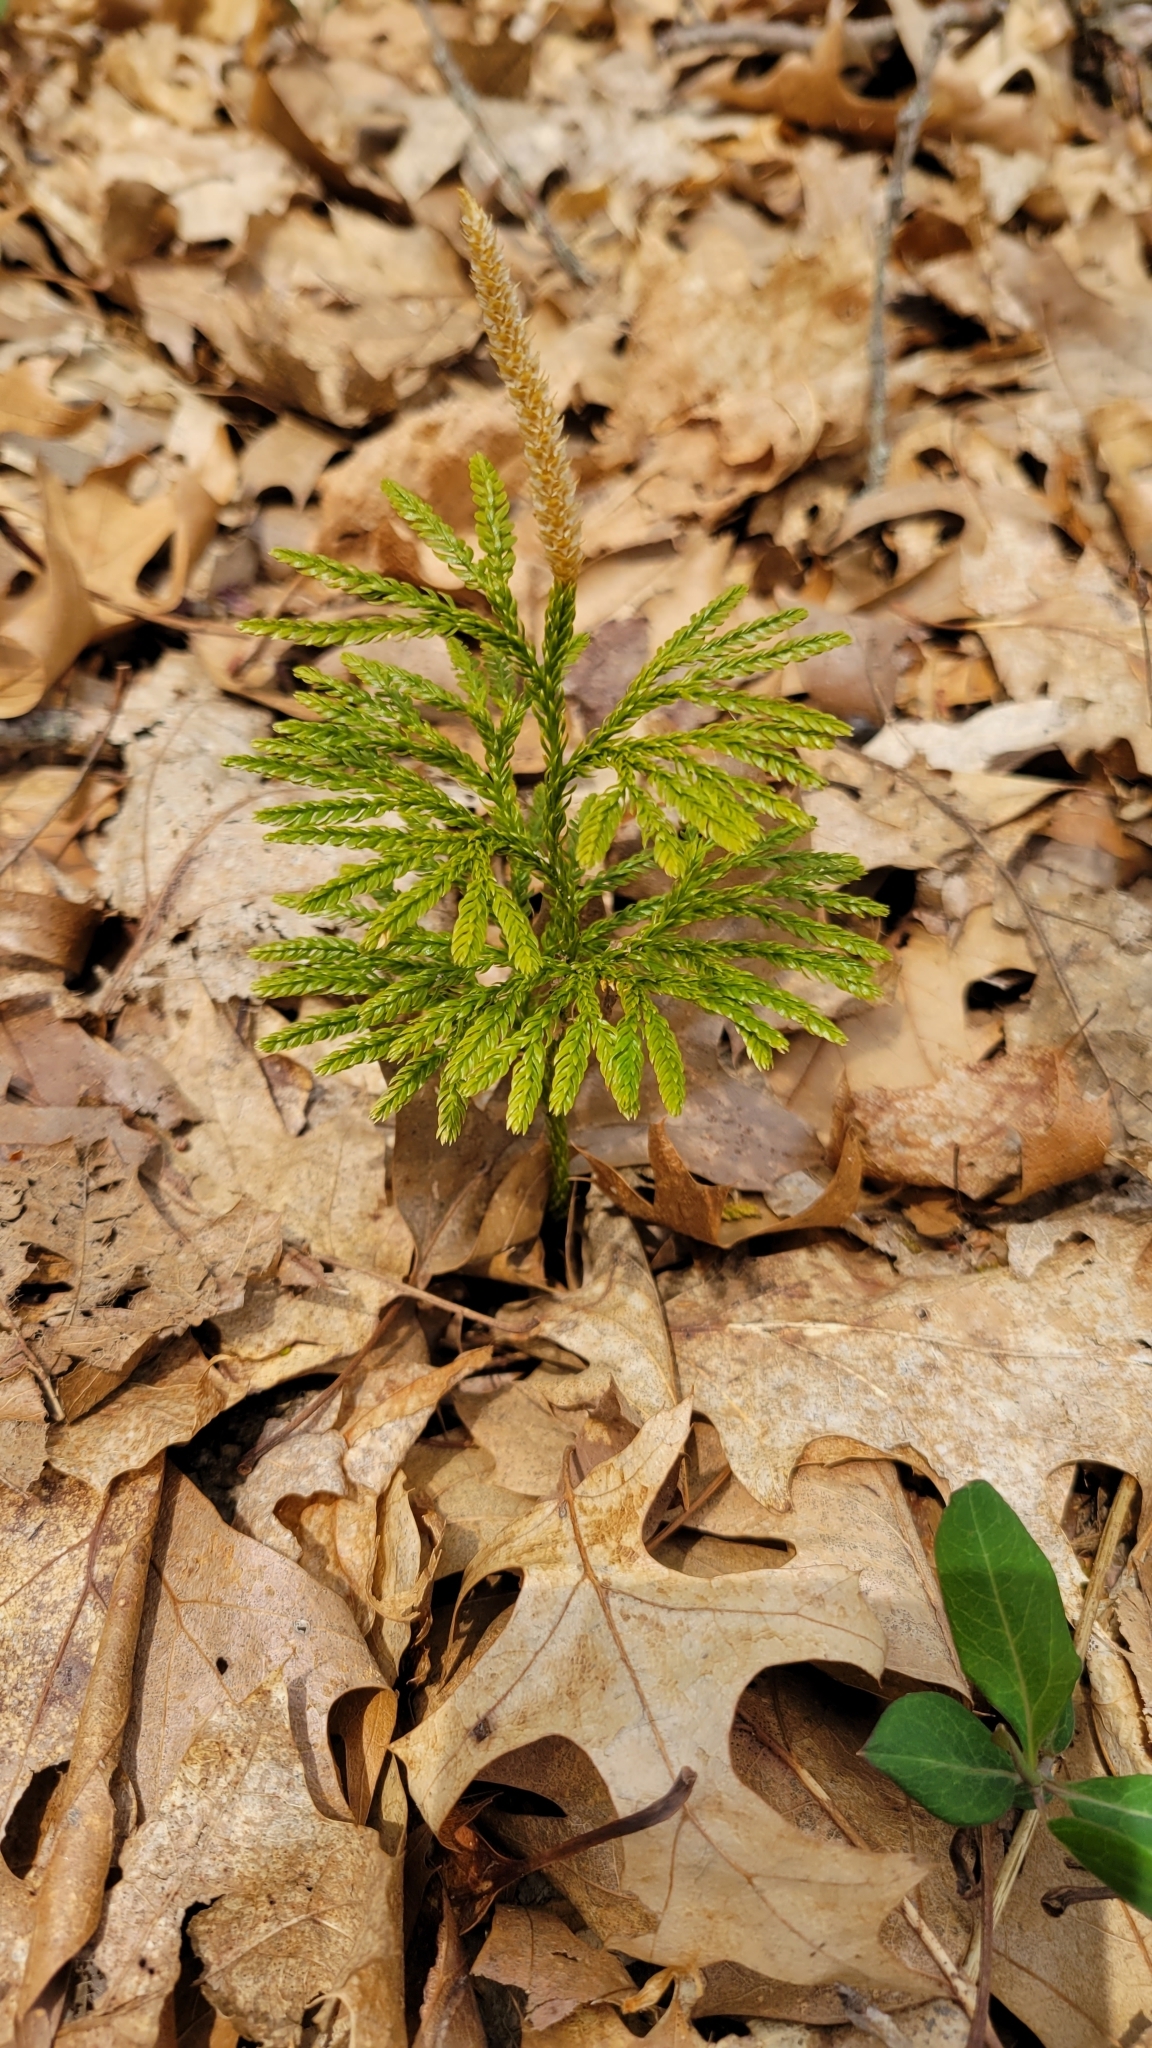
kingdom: Plantae
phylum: Tracheophyta
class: Lycopodiopsida
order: Lycopodiales
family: Lycopodiaceae
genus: Dendrolycopodium
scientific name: Dendrolycopodium obscurum
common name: Common ground-pine
